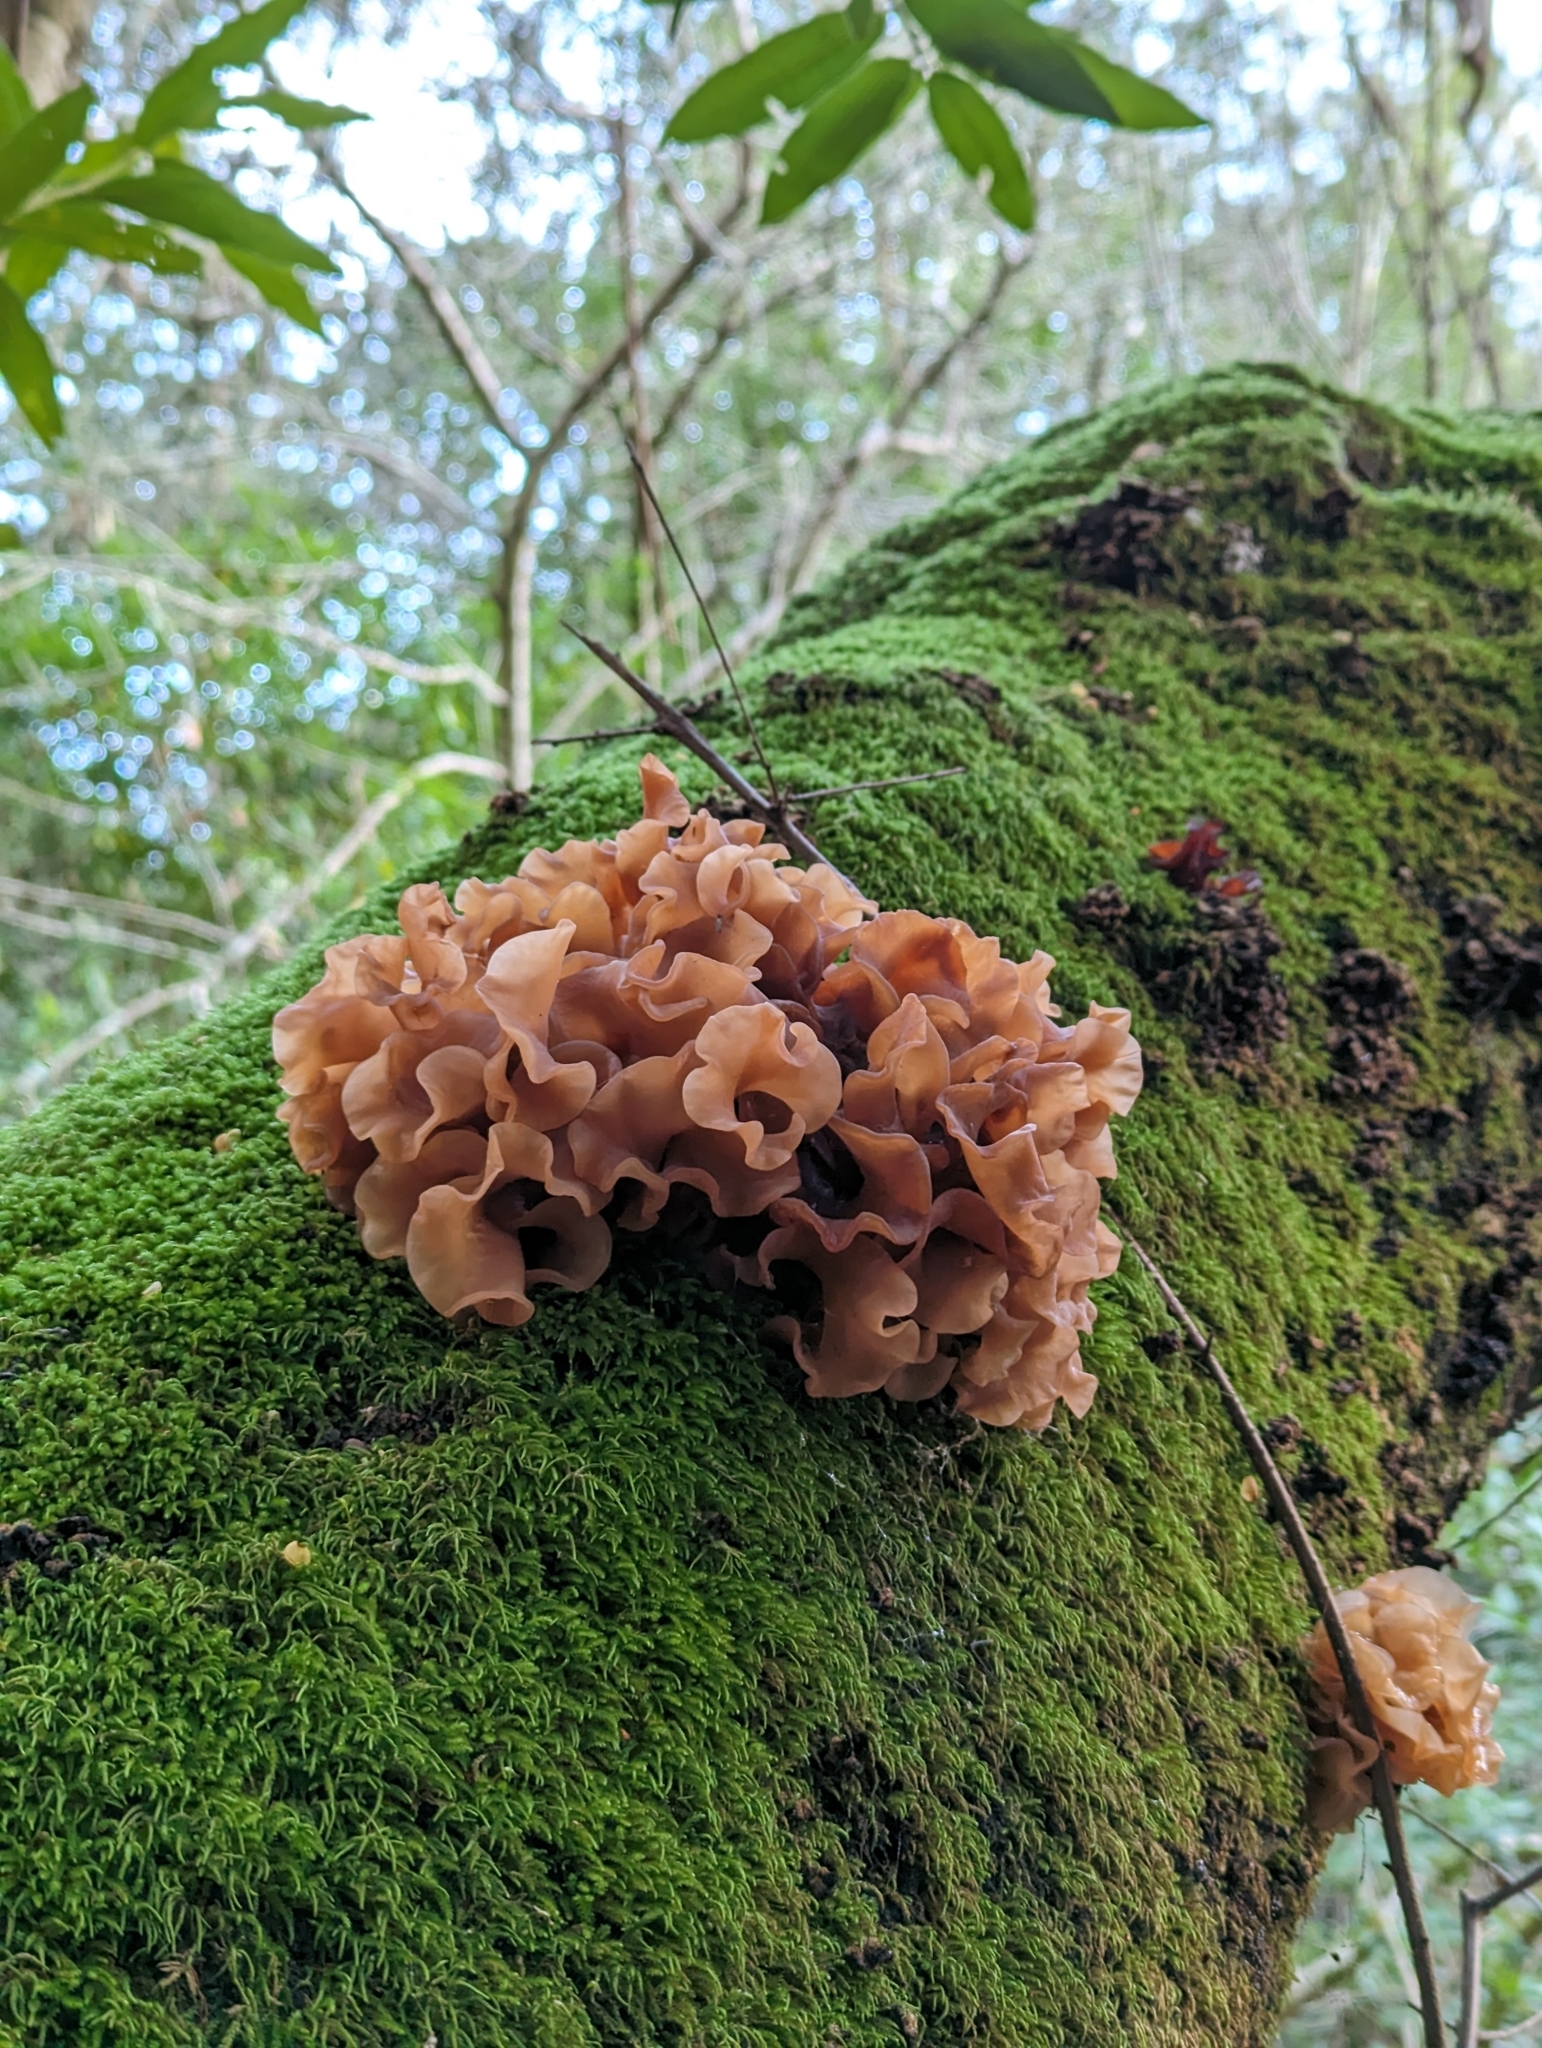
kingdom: Fungi
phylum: Basidiomycota
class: Tremellomycetes
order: Tremellales
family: Tremellaceae
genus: Phaeotremella
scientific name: Phaeotremella foliacea
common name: Leafy brain
